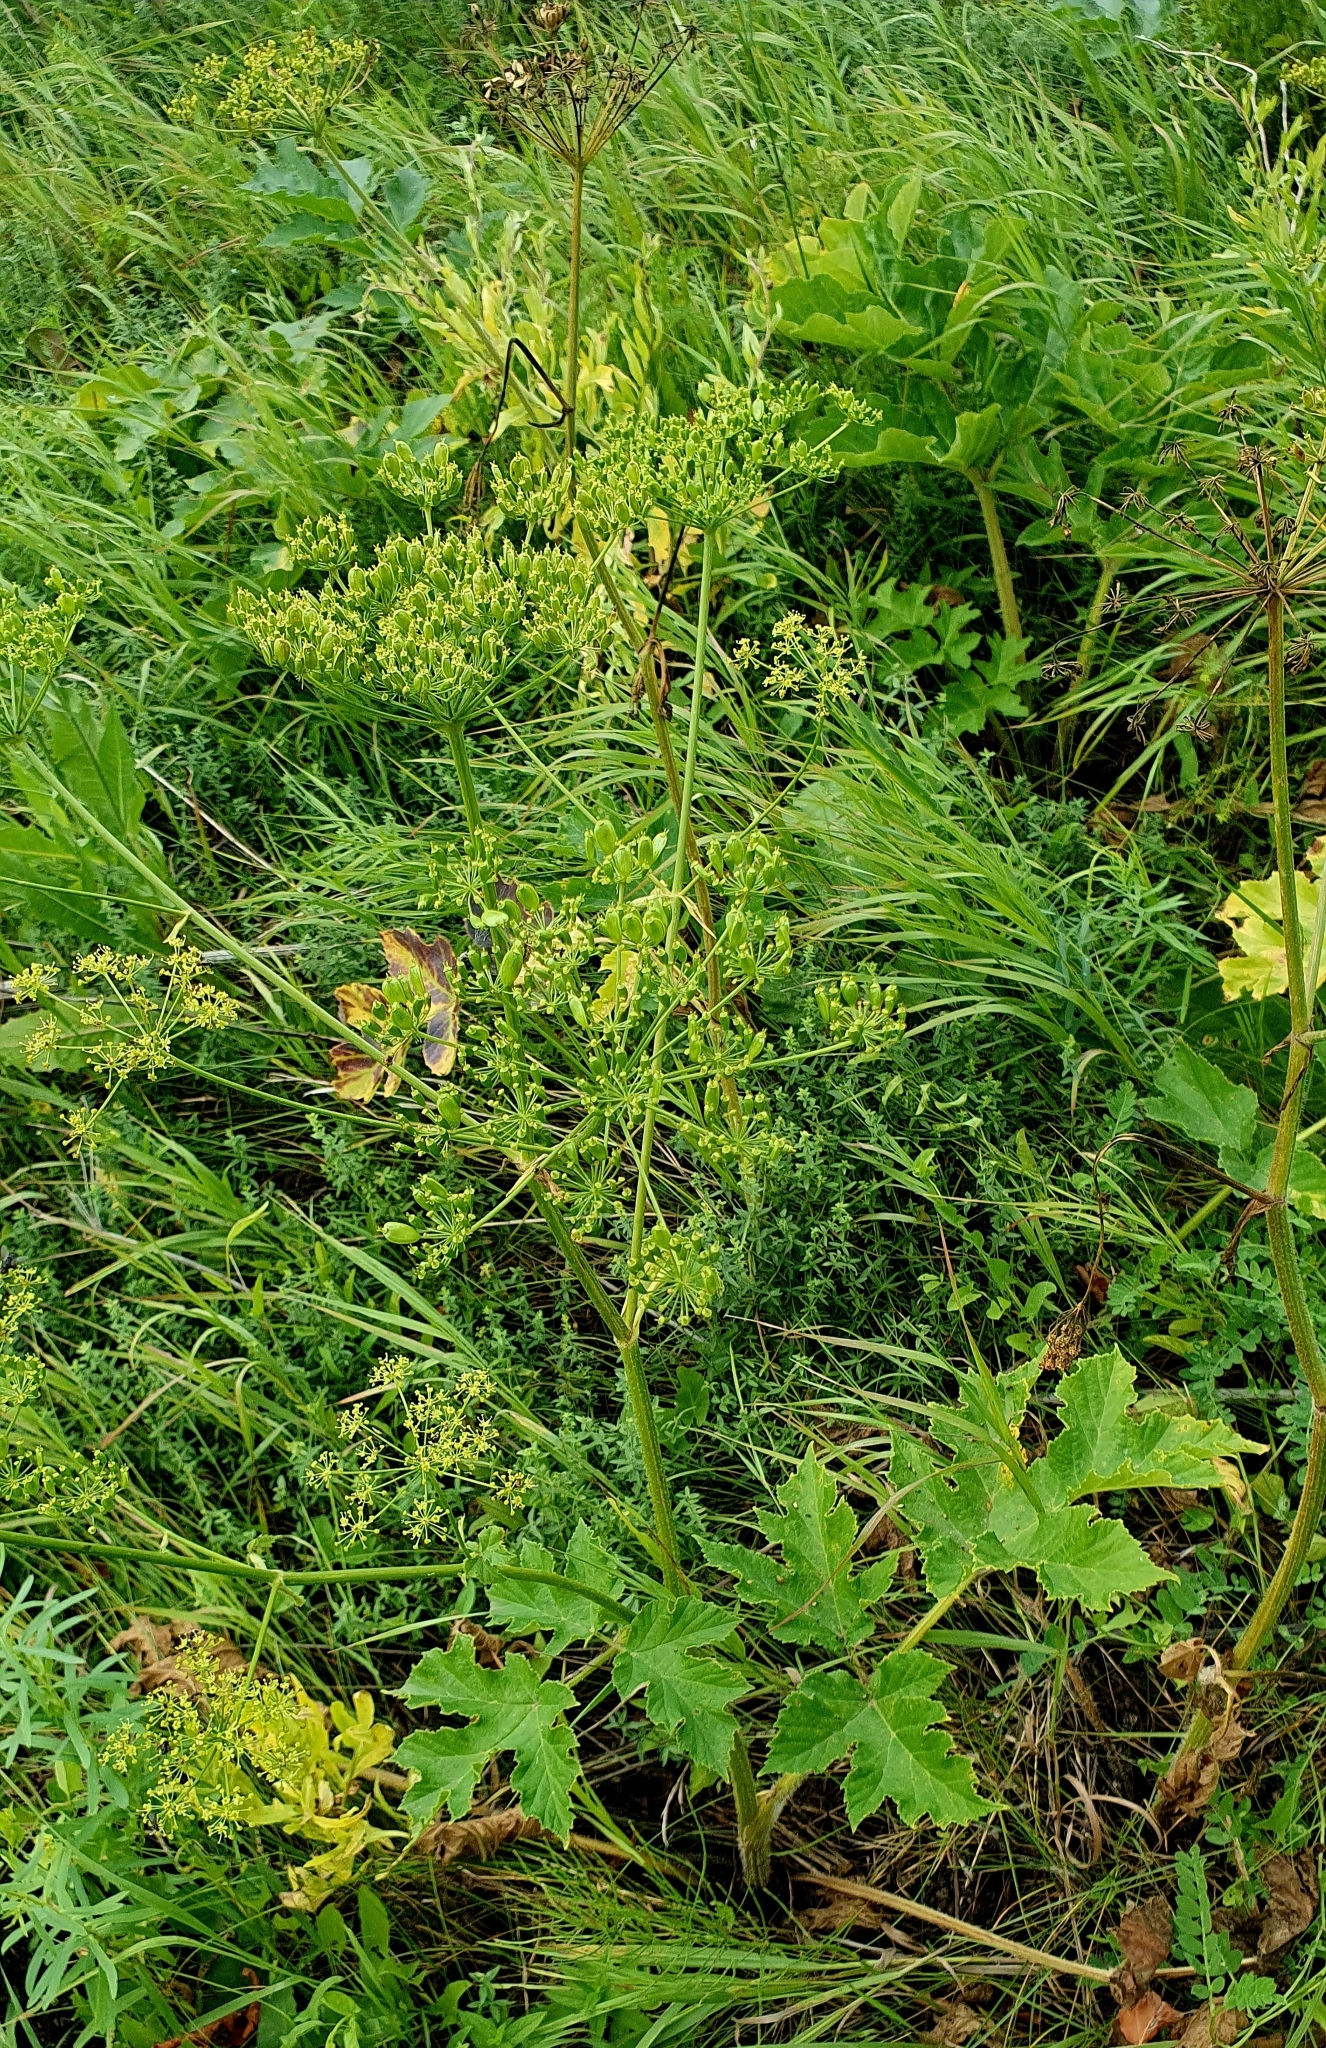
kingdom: Plantae
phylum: Tracheophyta
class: Magnoliopsida
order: Apiales
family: Apiaceae
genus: Heracleum
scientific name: Heracleum sphondylium
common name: Hogweed
